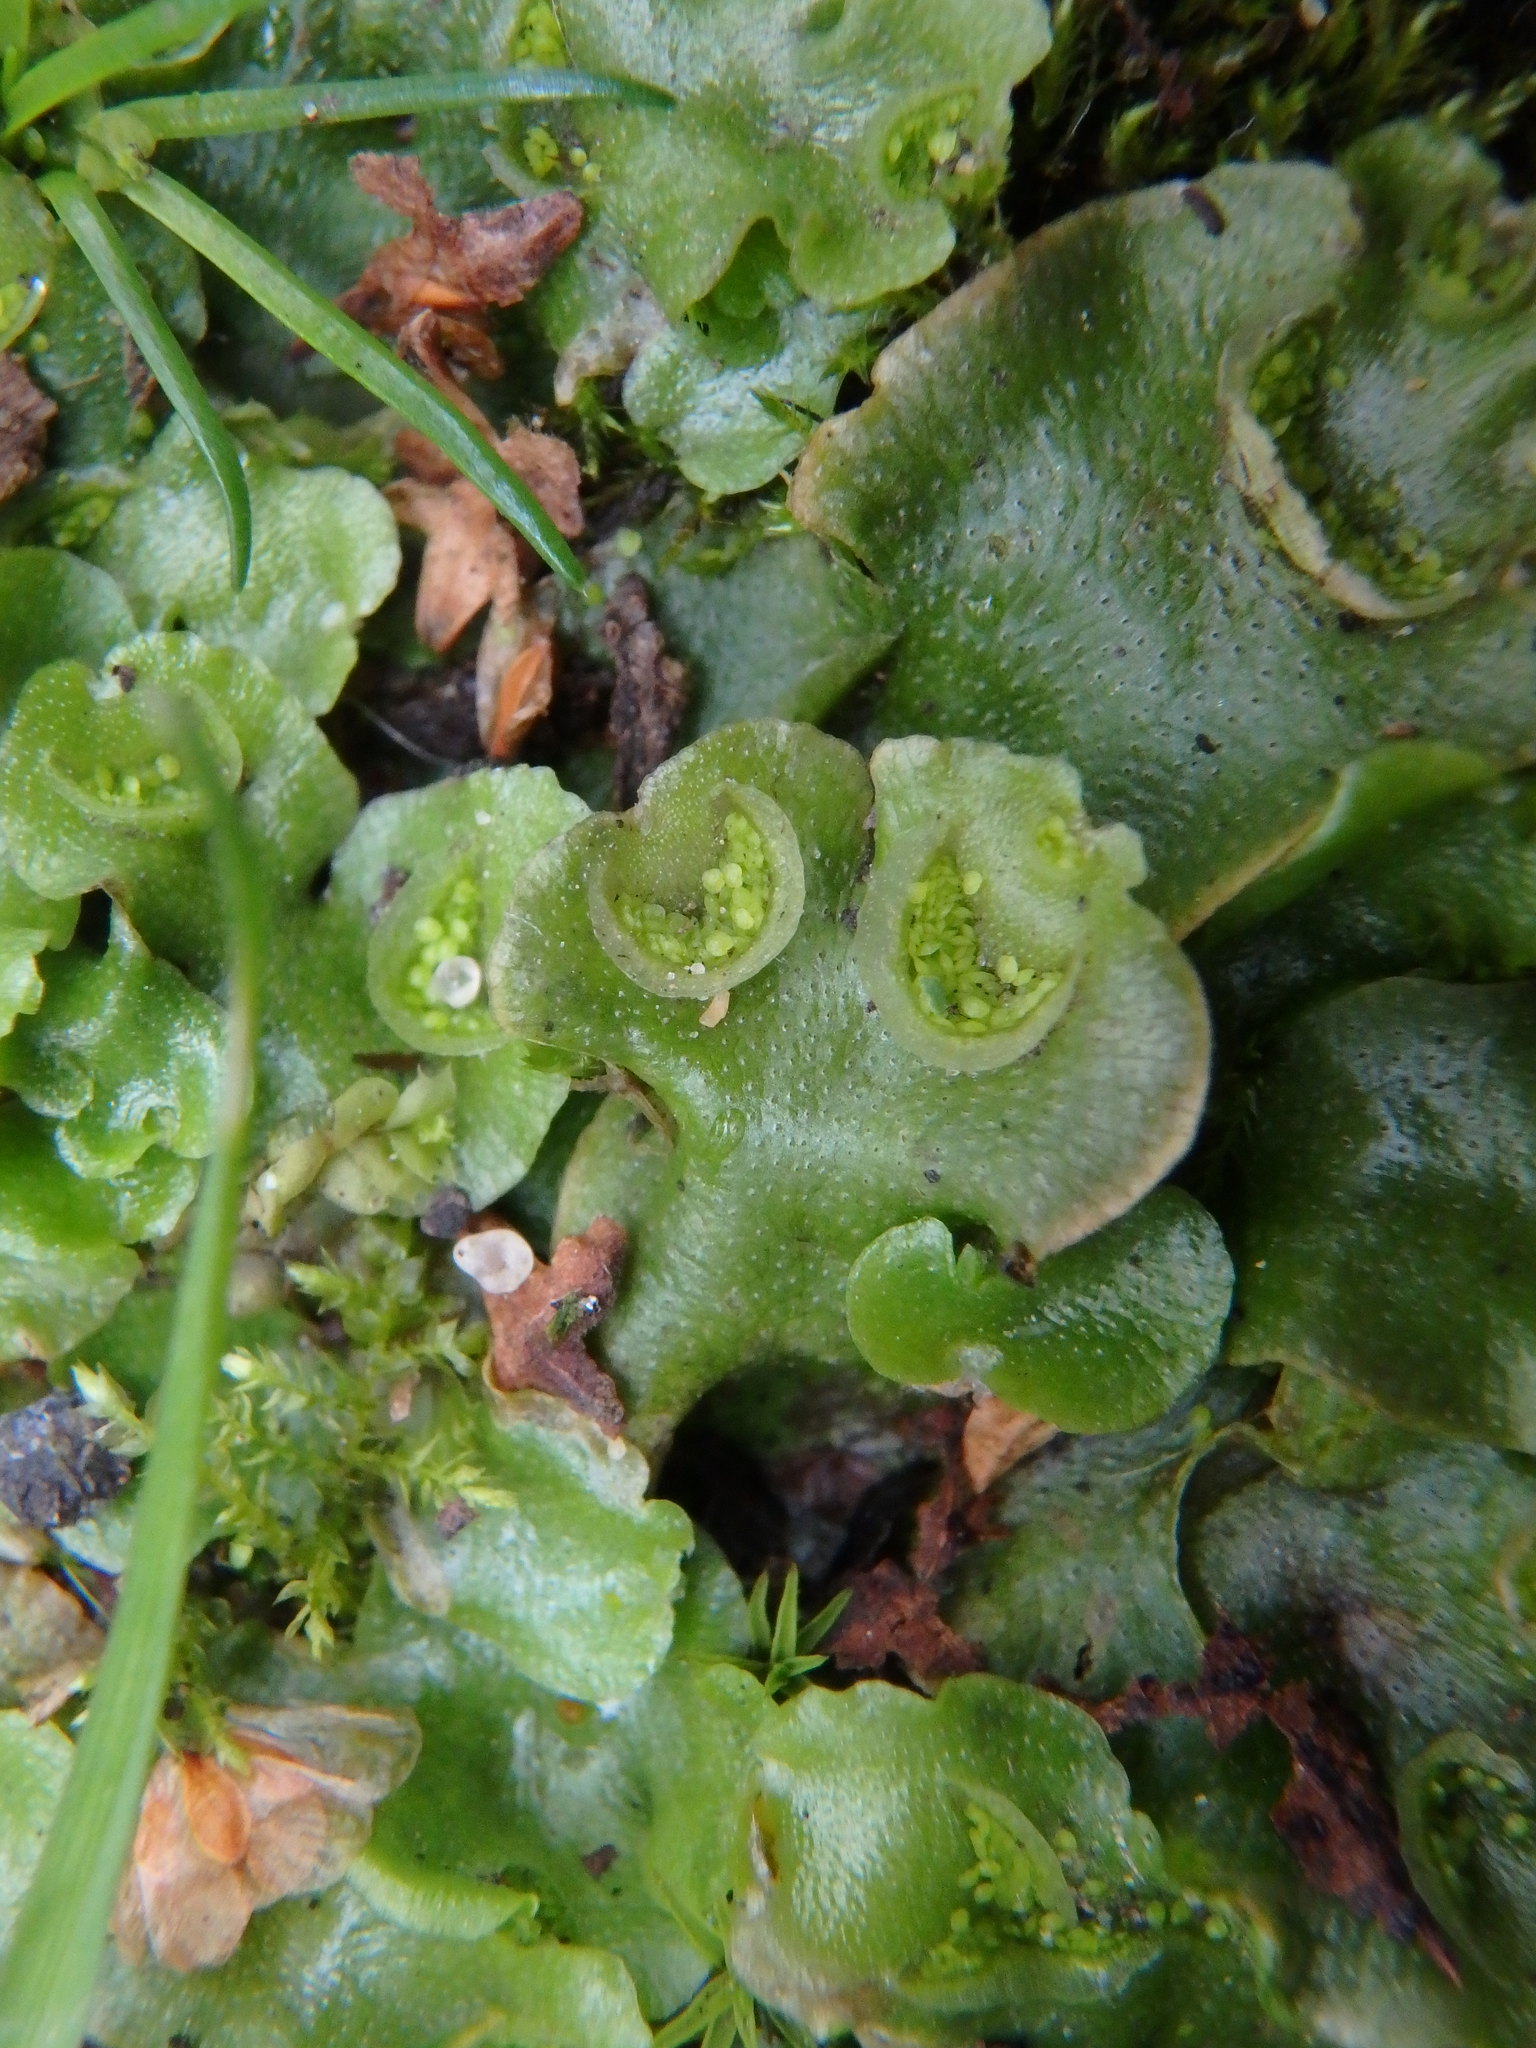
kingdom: Plantae
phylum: Marchantiophyta
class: Marchantiopsida
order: Lunulariales
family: Lunulariaceae
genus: Lunularia
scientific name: Lunularia cruciata
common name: Crescent-cup liverwort
